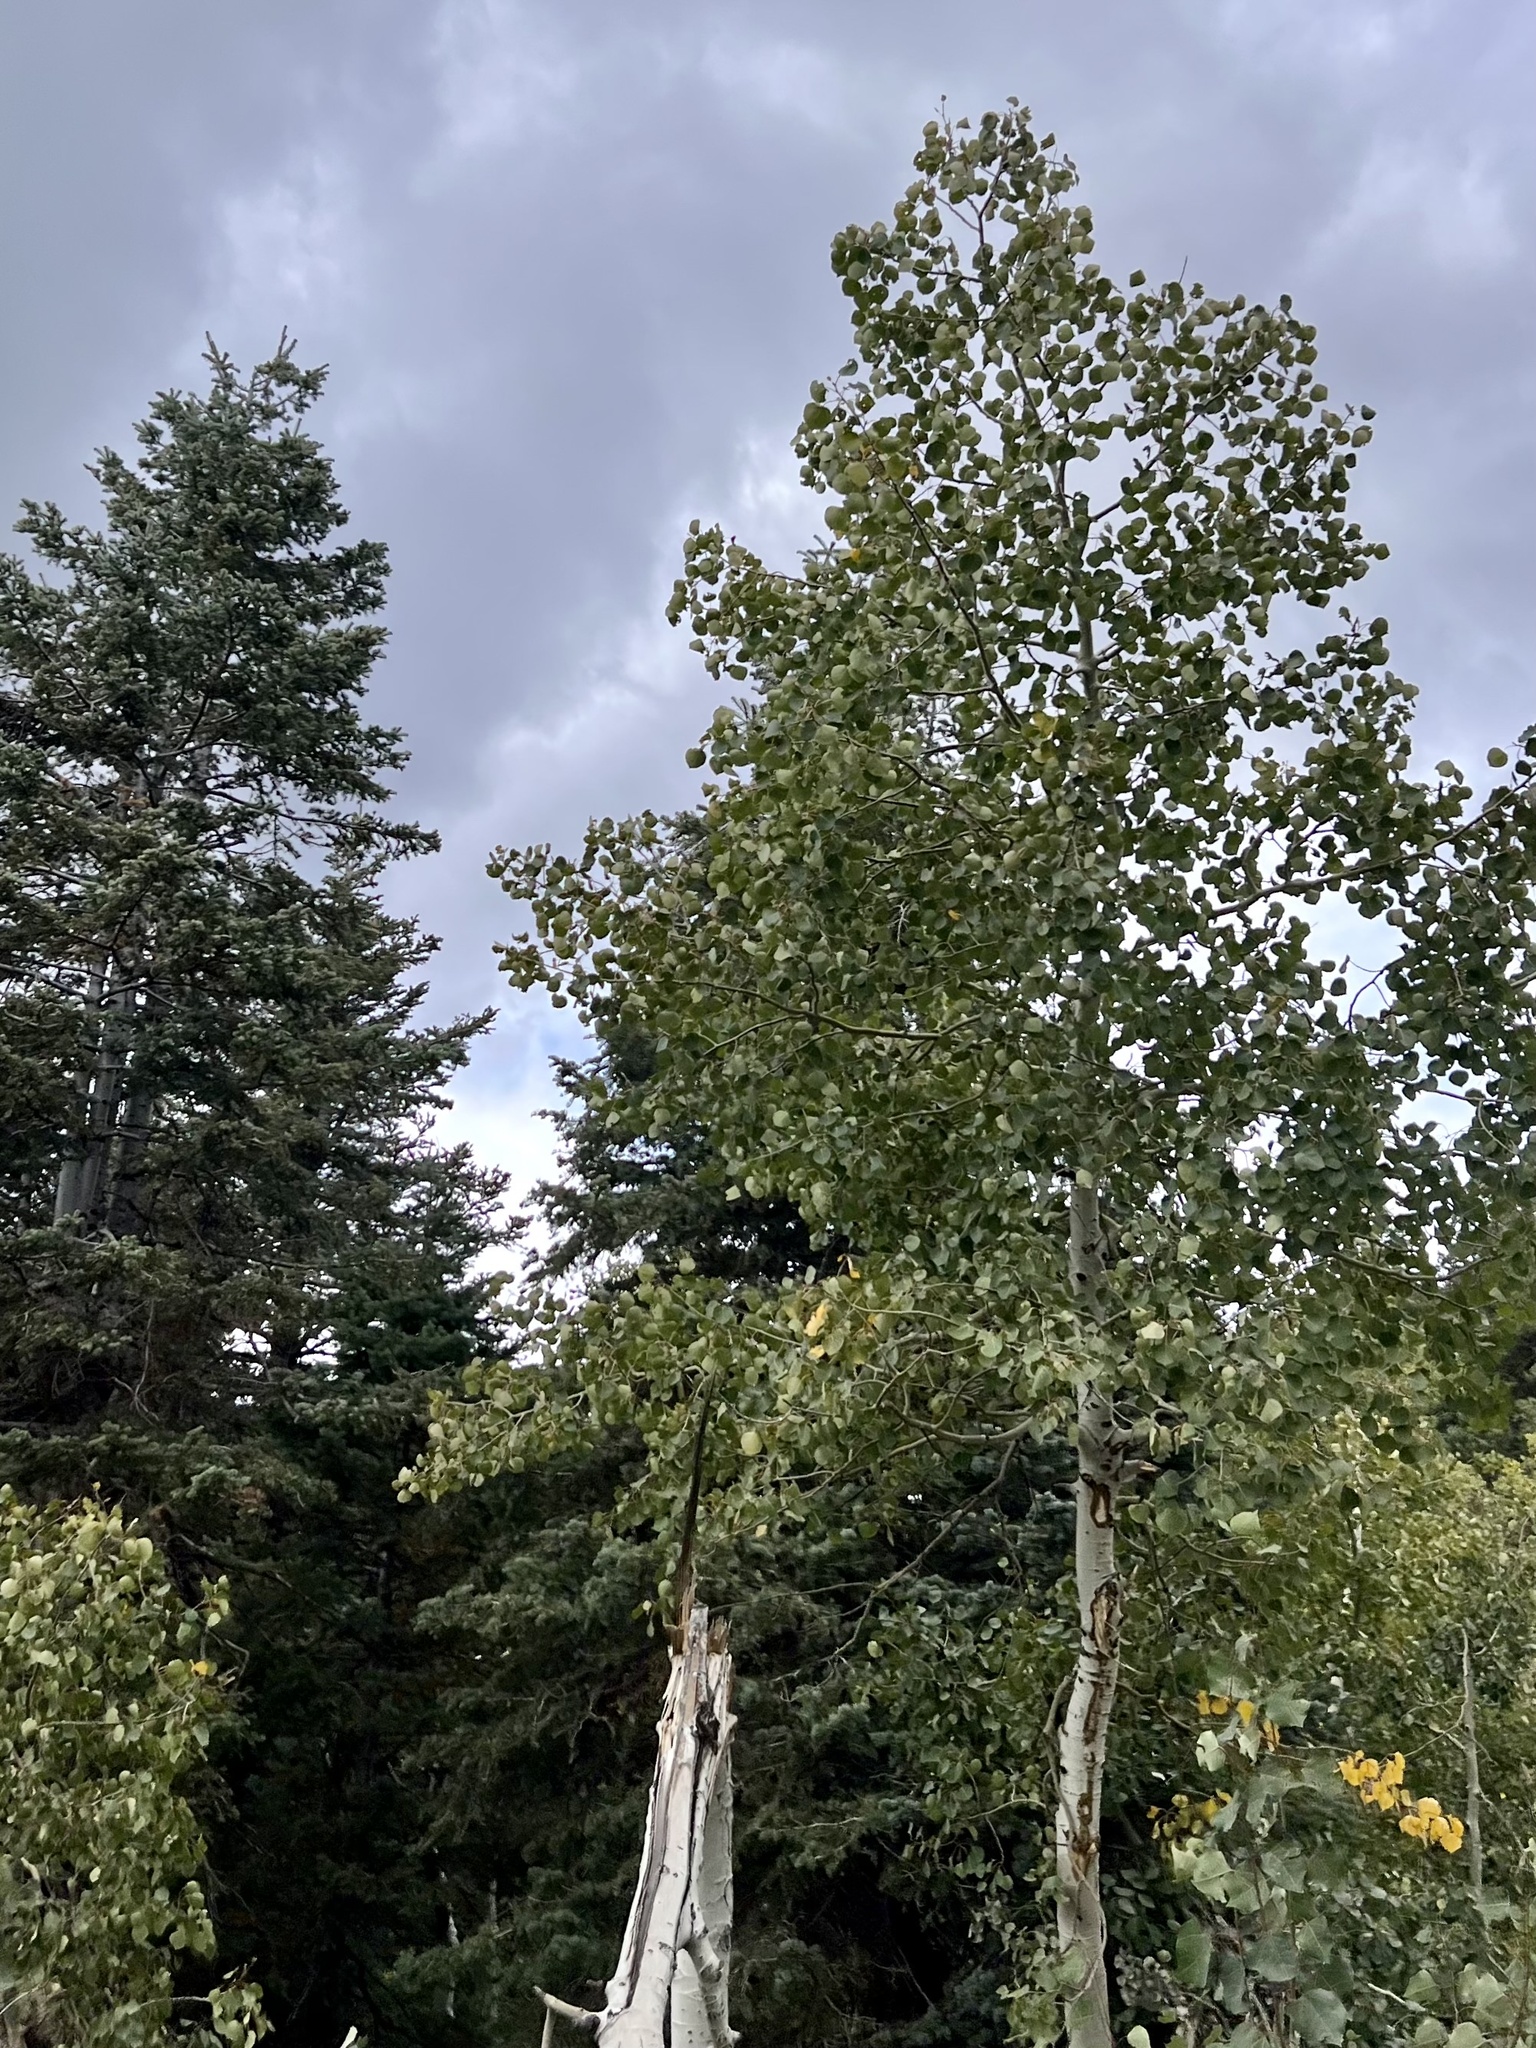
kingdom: Plantae
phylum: Tracheophyta
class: Magnoliopsida
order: Malpighiales
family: Salicaceae
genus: Populus
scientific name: Populus tremuloides
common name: Quaking aspen
